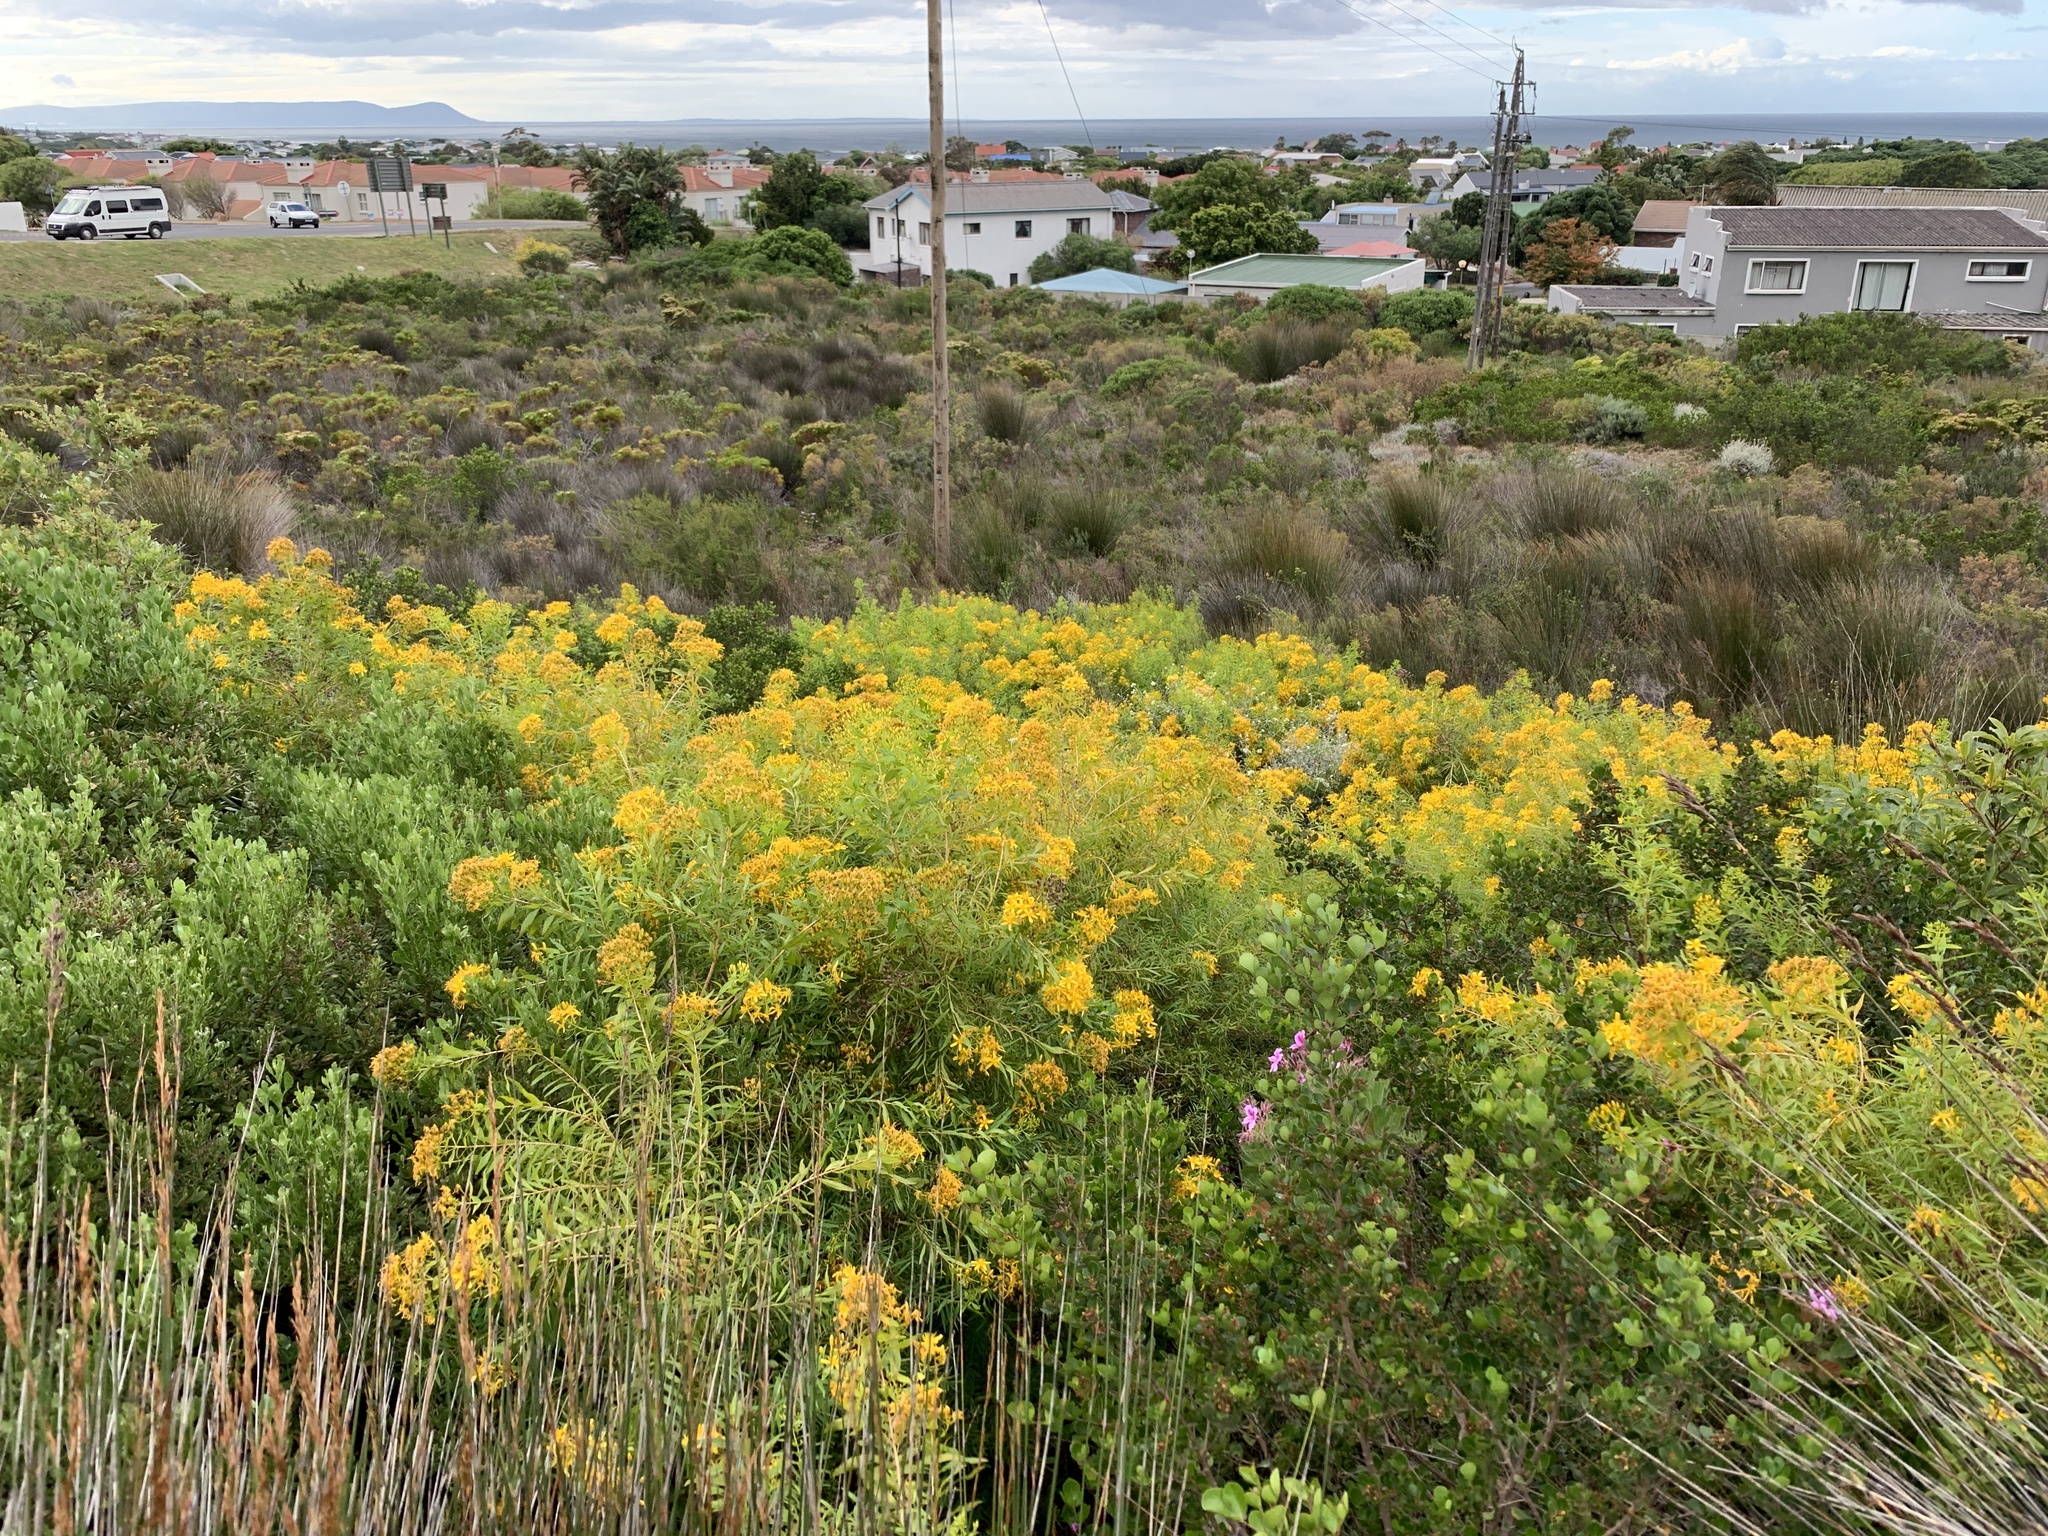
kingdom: Plantae
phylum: Tracheophyta
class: Magnoliopsida
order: Malpighiales
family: Hypericaceae
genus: Hypericum
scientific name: Hypericum canariense
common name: Canary island st. johnswort
